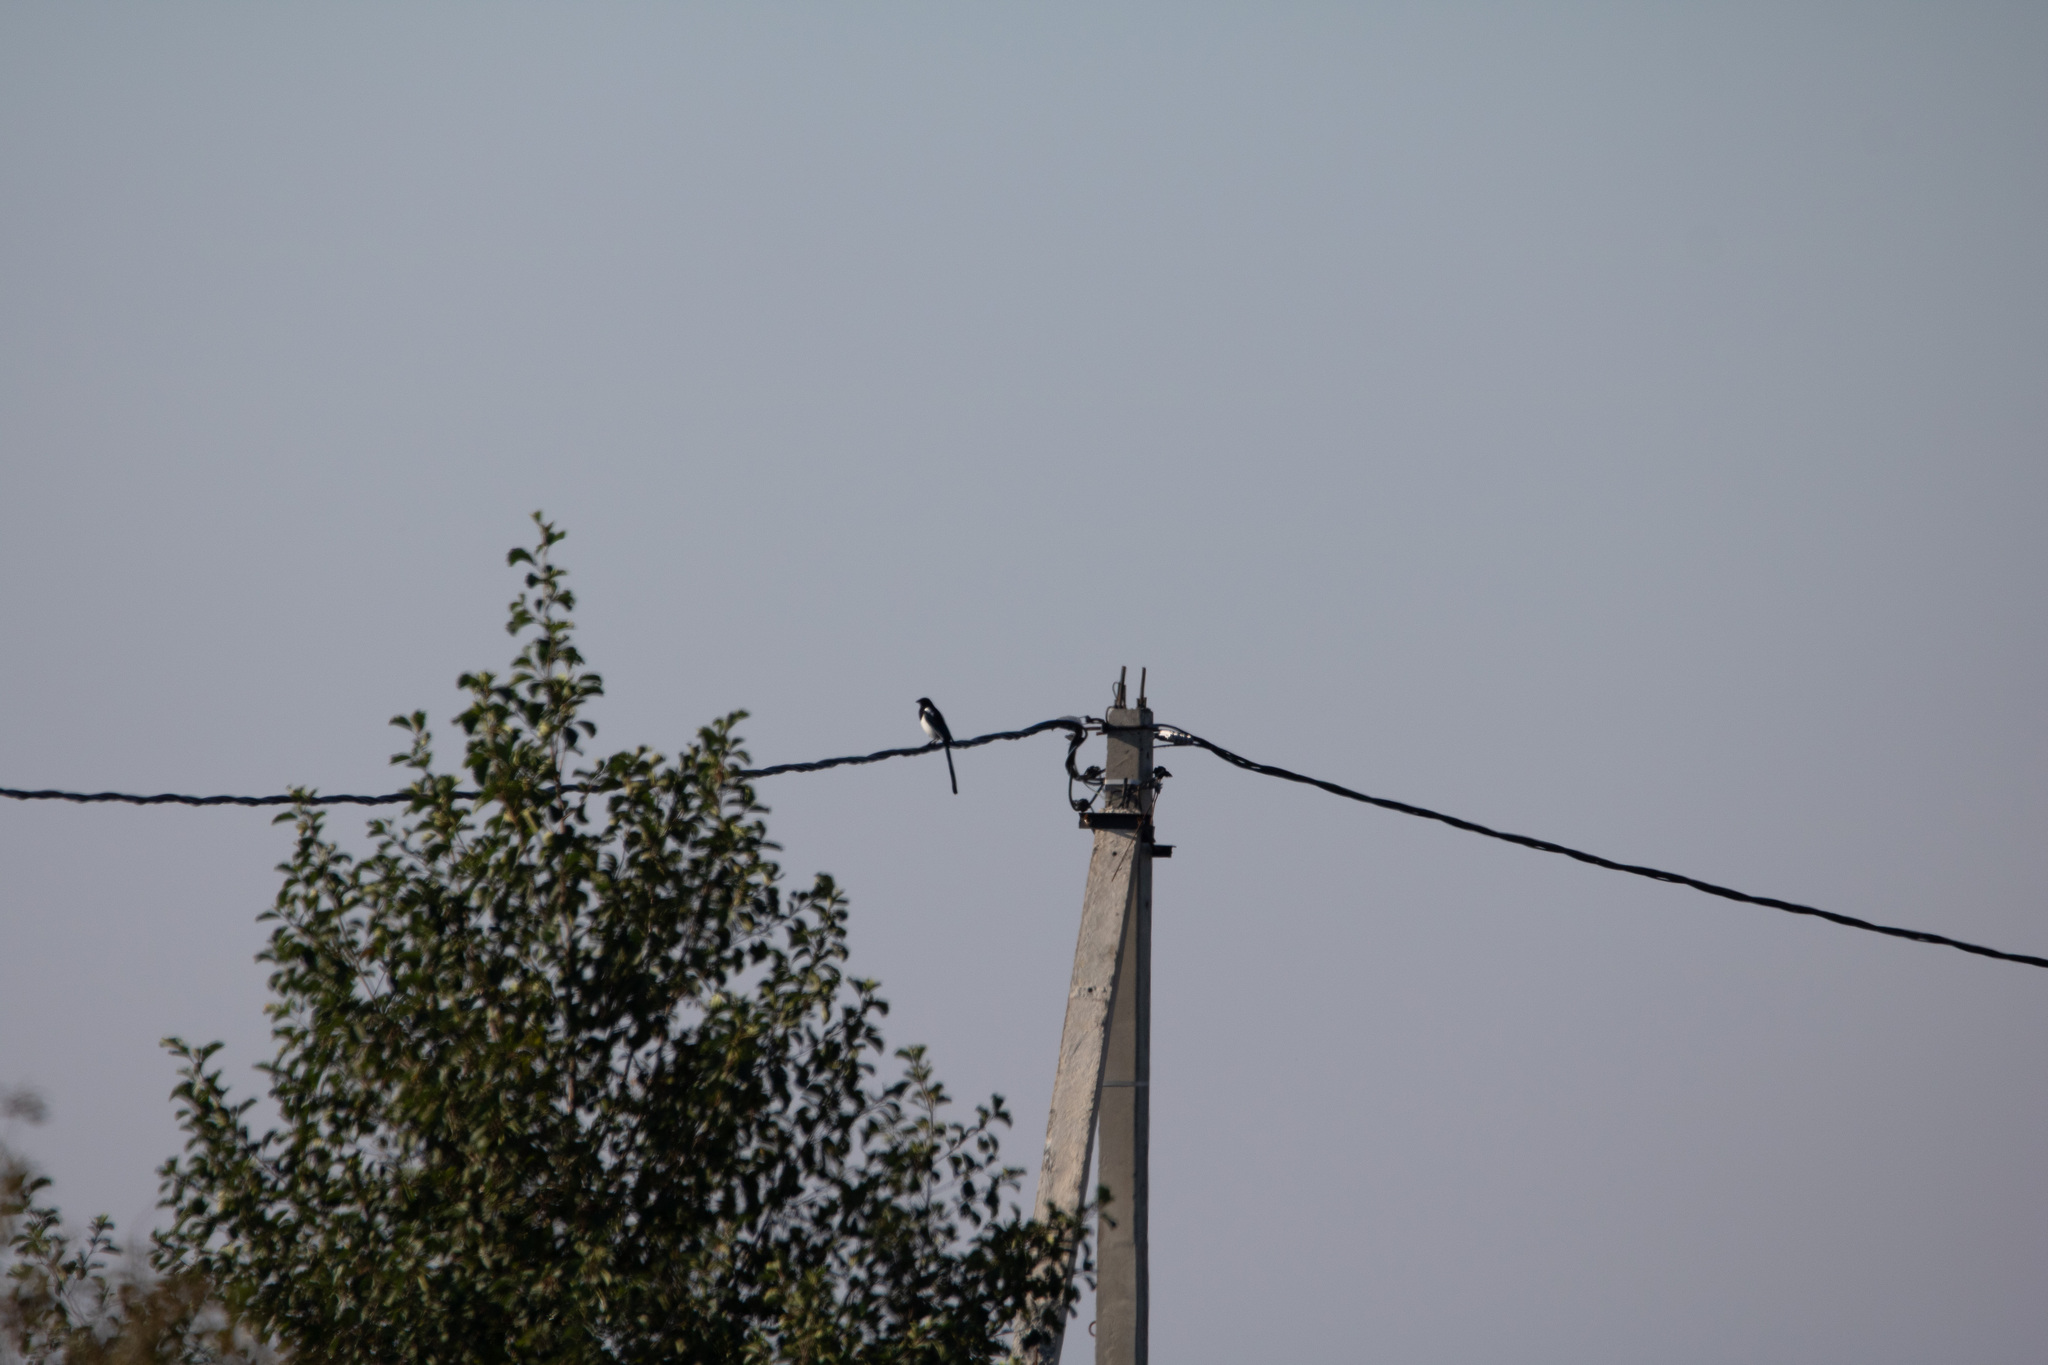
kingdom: Animalia
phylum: Chordata
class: Aves
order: Passeriformes
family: Corvidae
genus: Pica
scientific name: Pica pica
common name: Eurasian magpie
